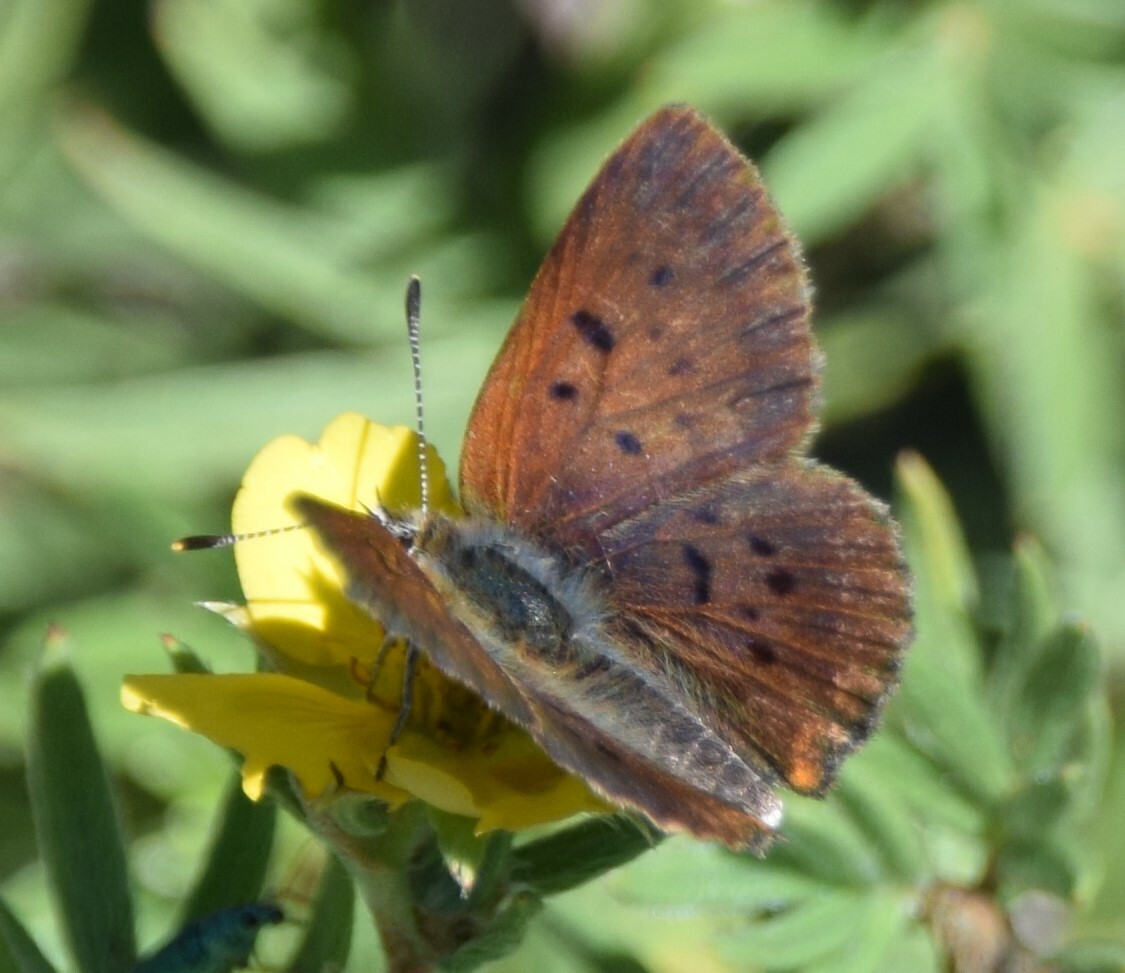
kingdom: Animalia
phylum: Arthropoda
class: Insecta
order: Lepidoptera
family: Lycaenidae
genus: Tharsalea
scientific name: Tharsalea dorcas
